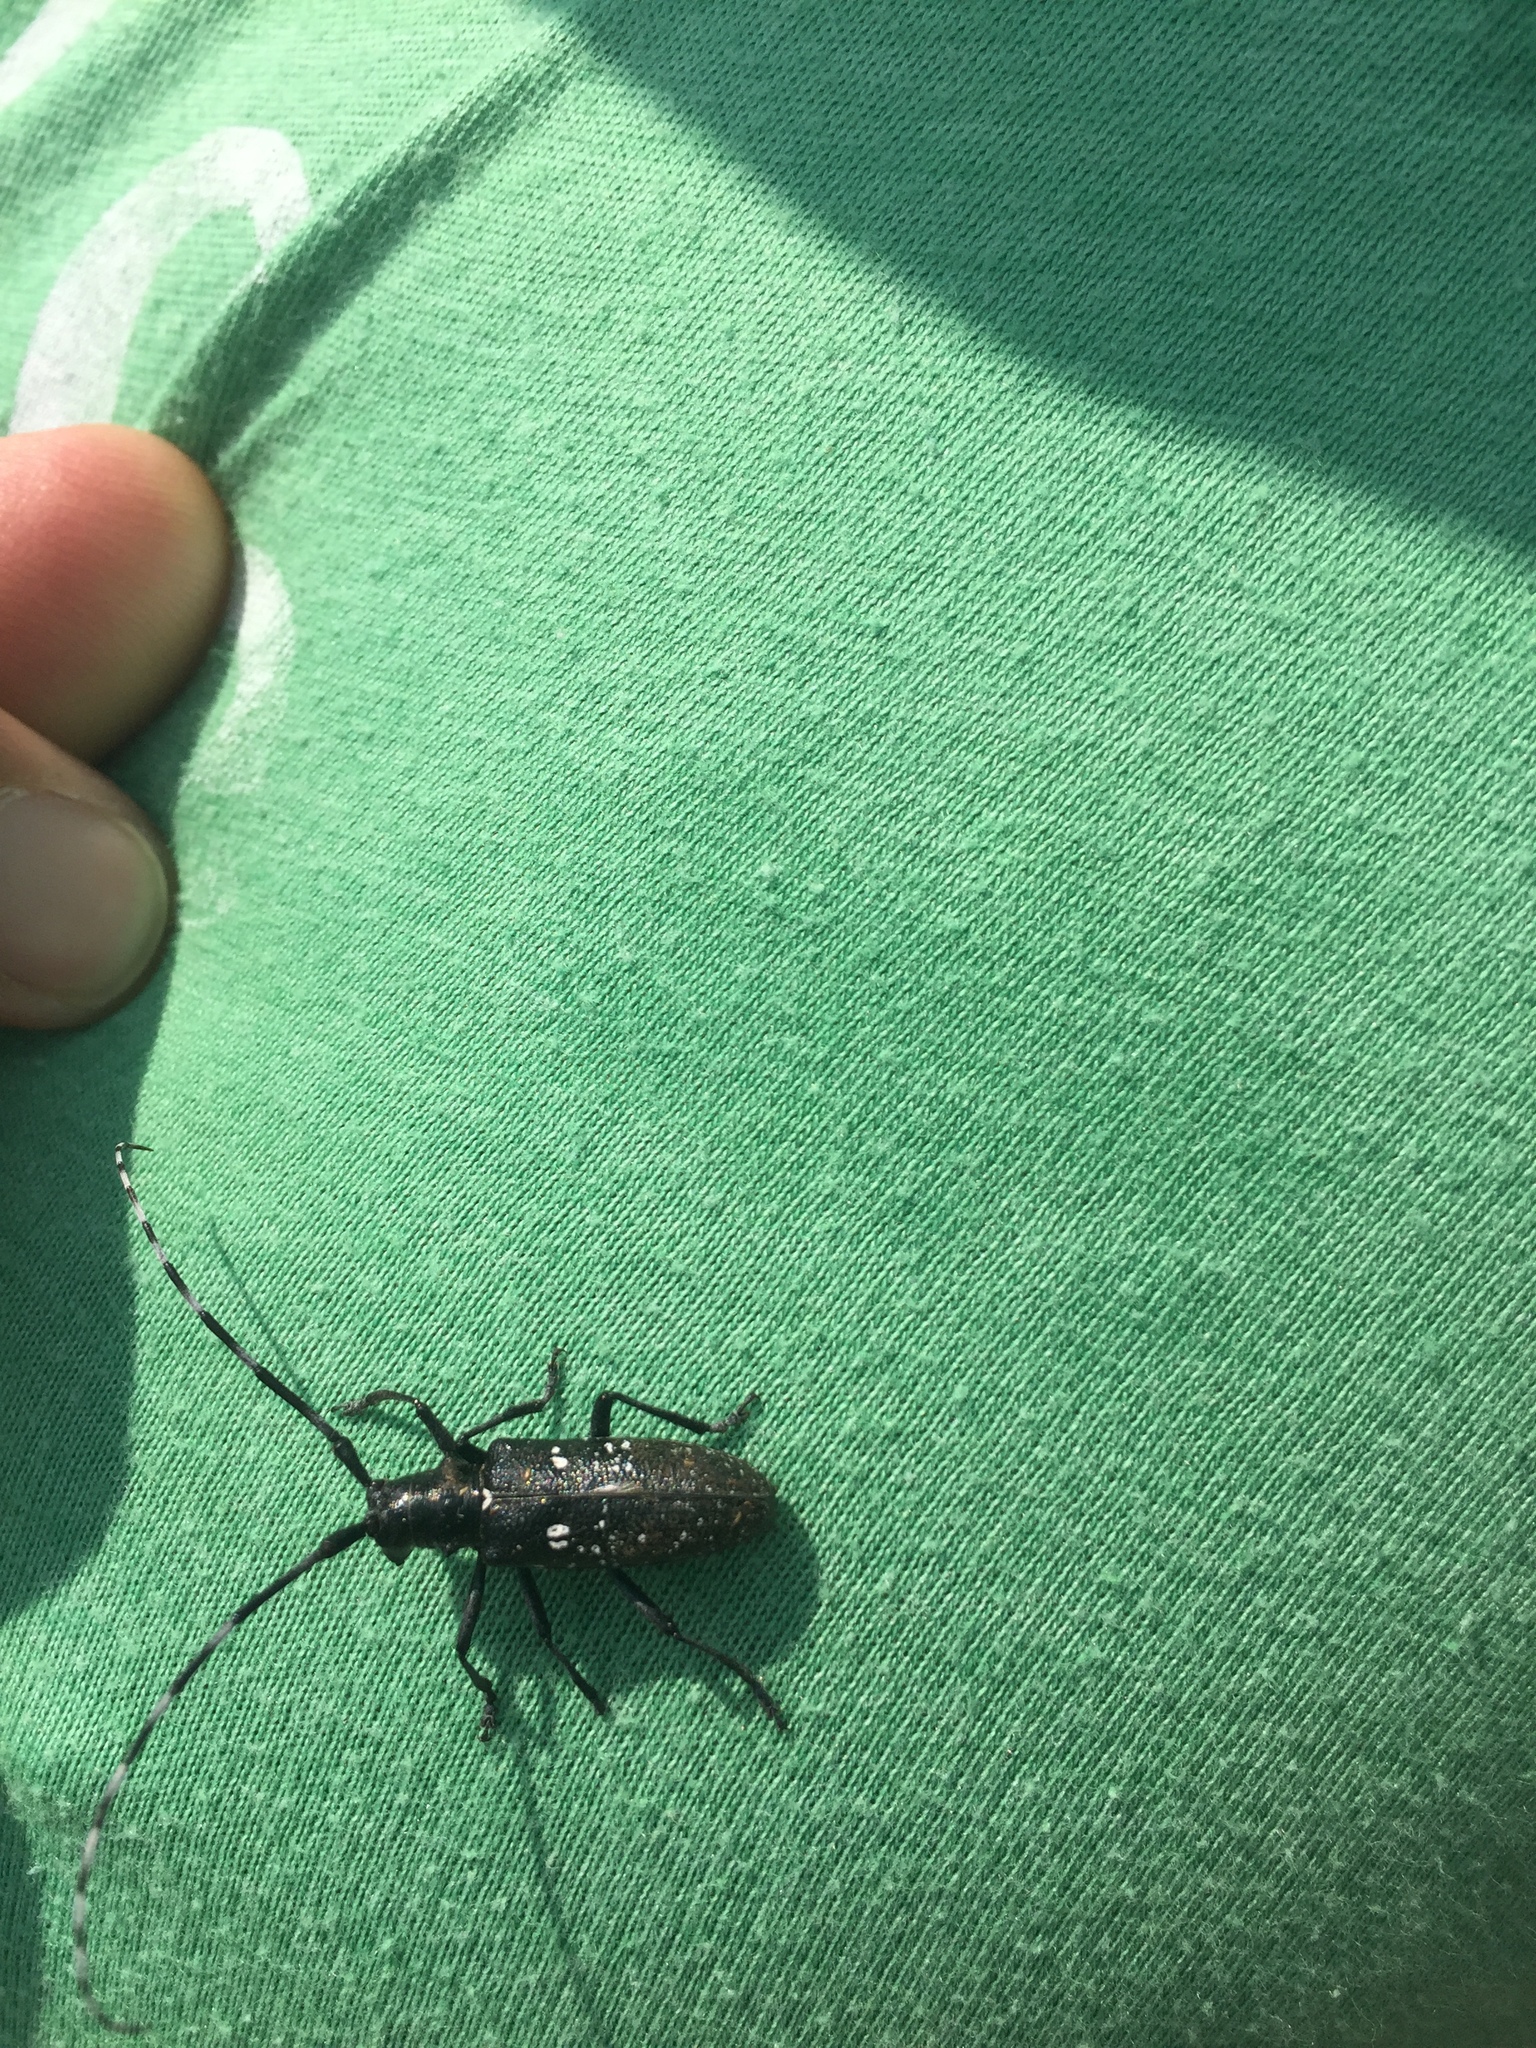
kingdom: Animalia
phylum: Arthropoda
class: Insecta
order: Coleoptera
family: Cerambycidae
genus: Monochamus
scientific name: Monochamus scutellatus
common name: White-spotted sawyer beetle
